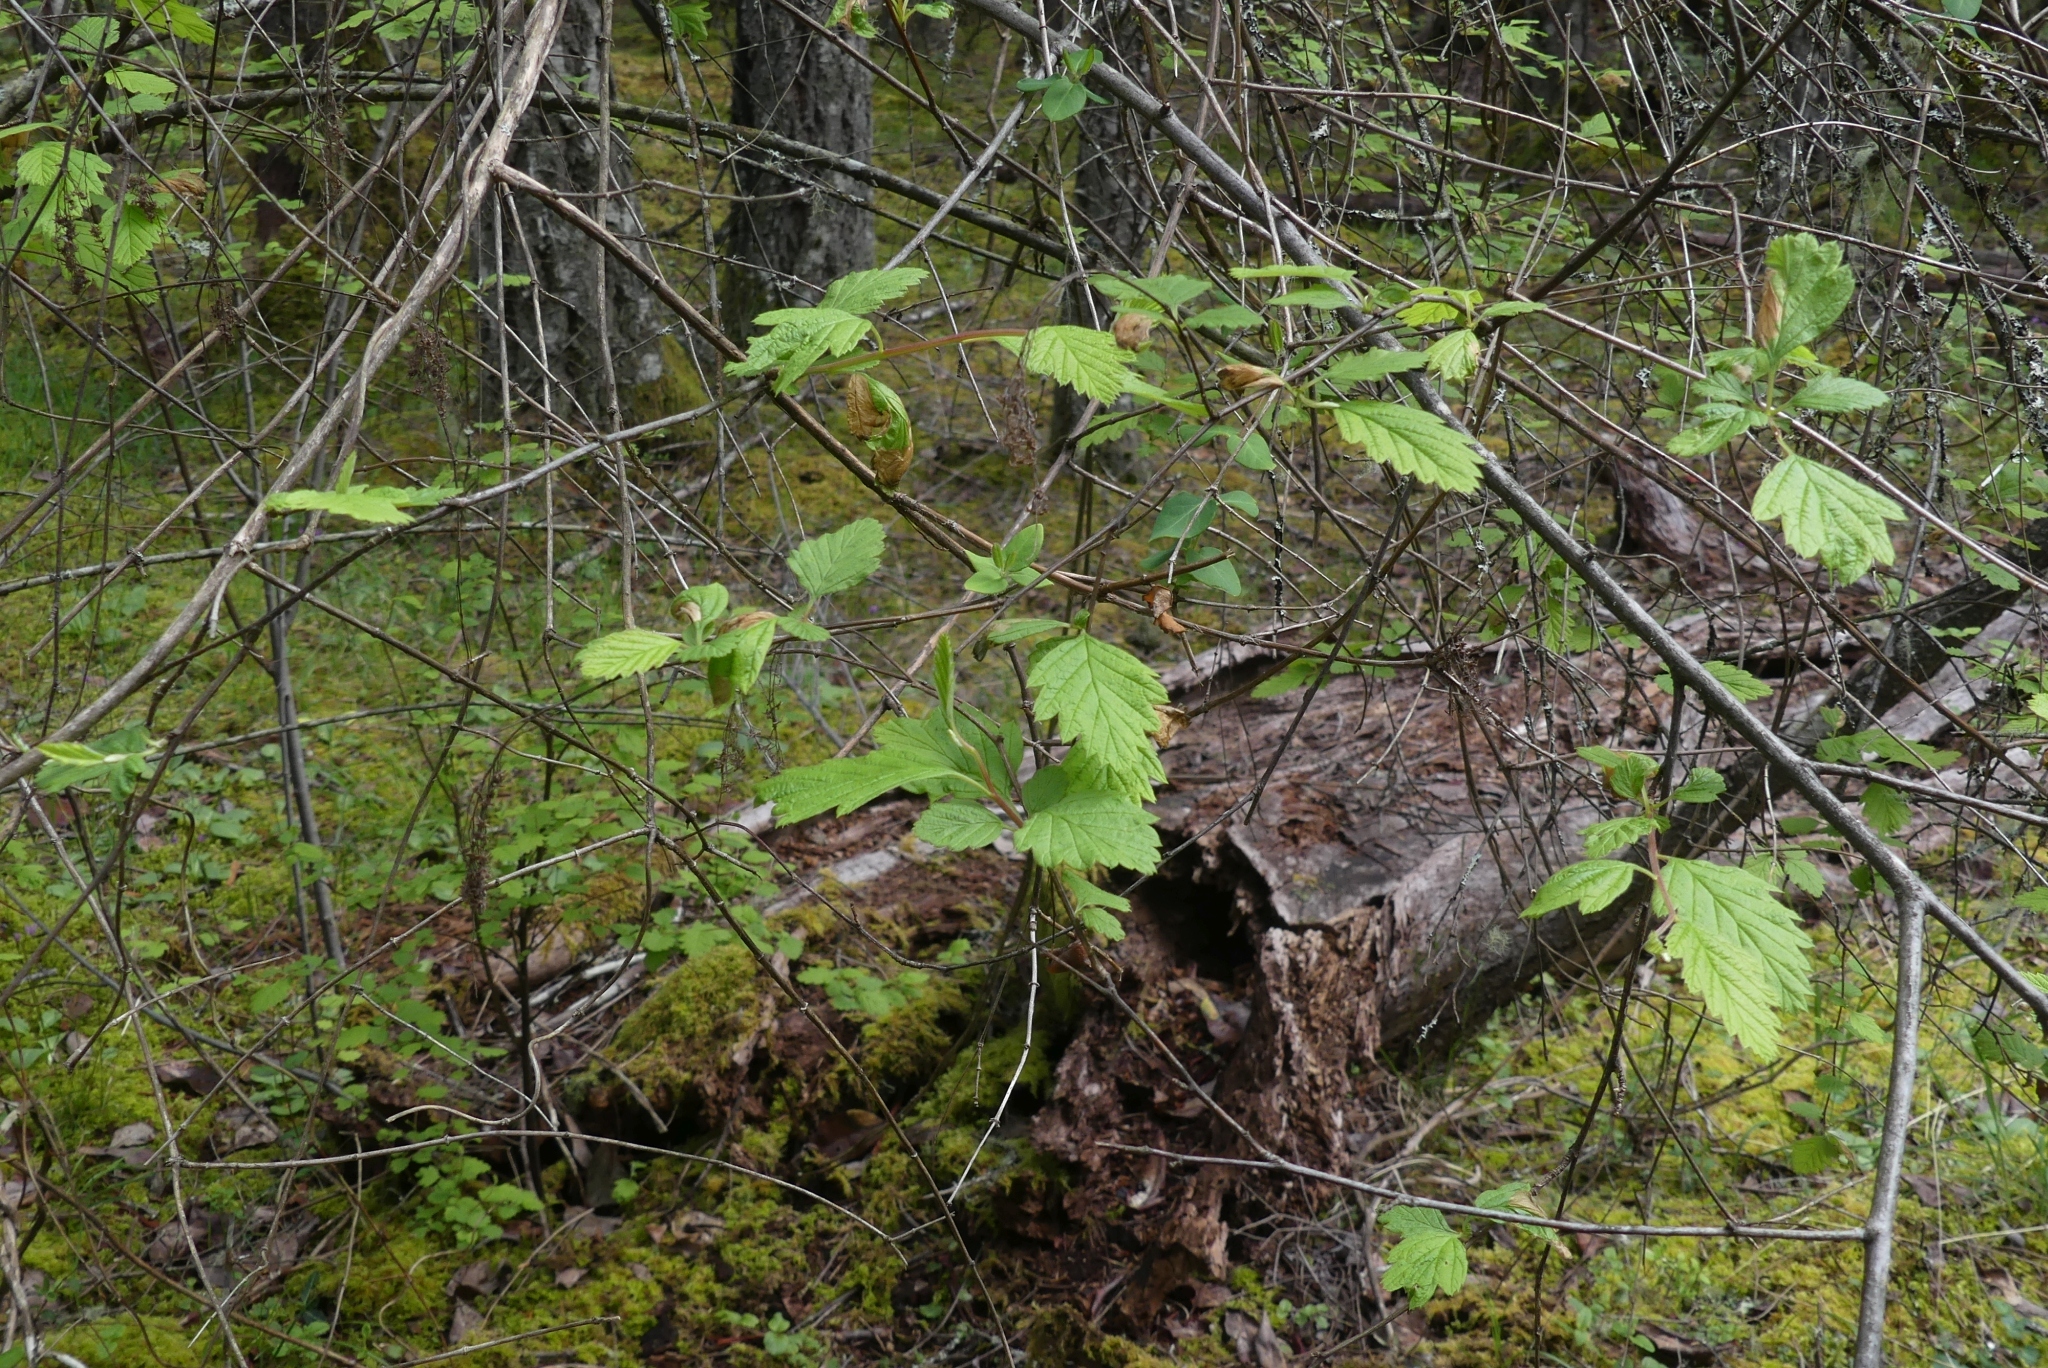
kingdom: Plantae
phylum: Tracheophyta
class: Magnoliopsida
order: Rosales
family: Rosaceae
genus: Holodiscus
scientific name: Holodiscus discolor
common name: Oceanspray
